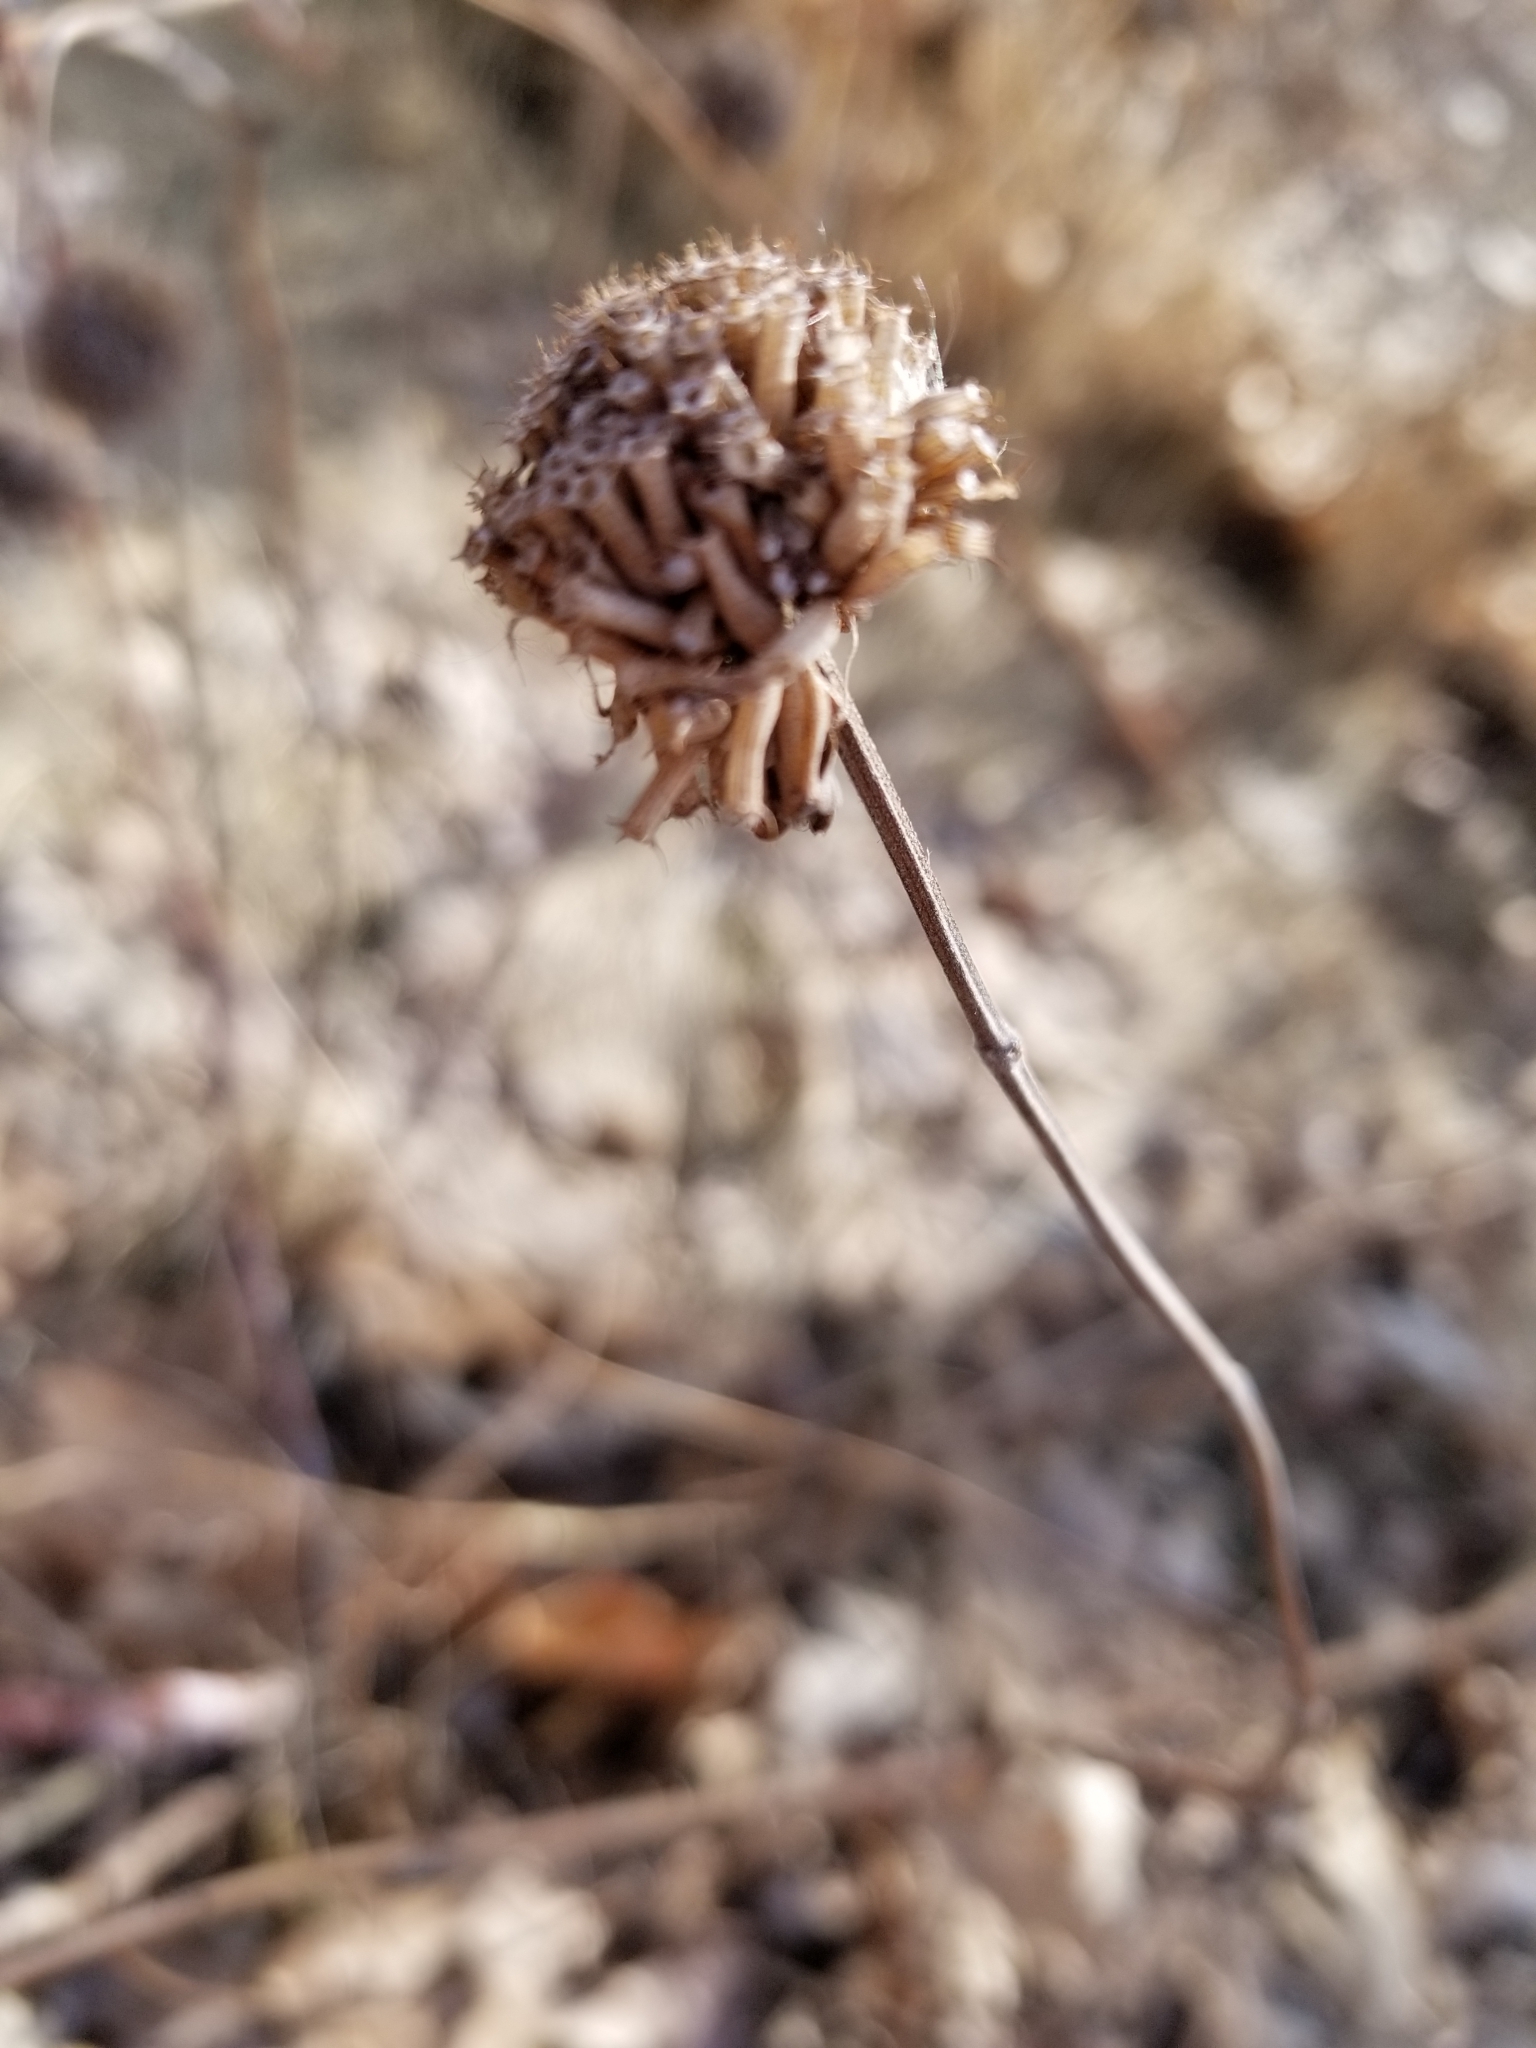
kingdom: Plantae
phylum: Tracheophyta
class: Magnoliopsida
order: Lamiales
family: Lamiaceae
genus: Monarda
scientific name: Monarda fistulosa
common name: Purple beebalm
